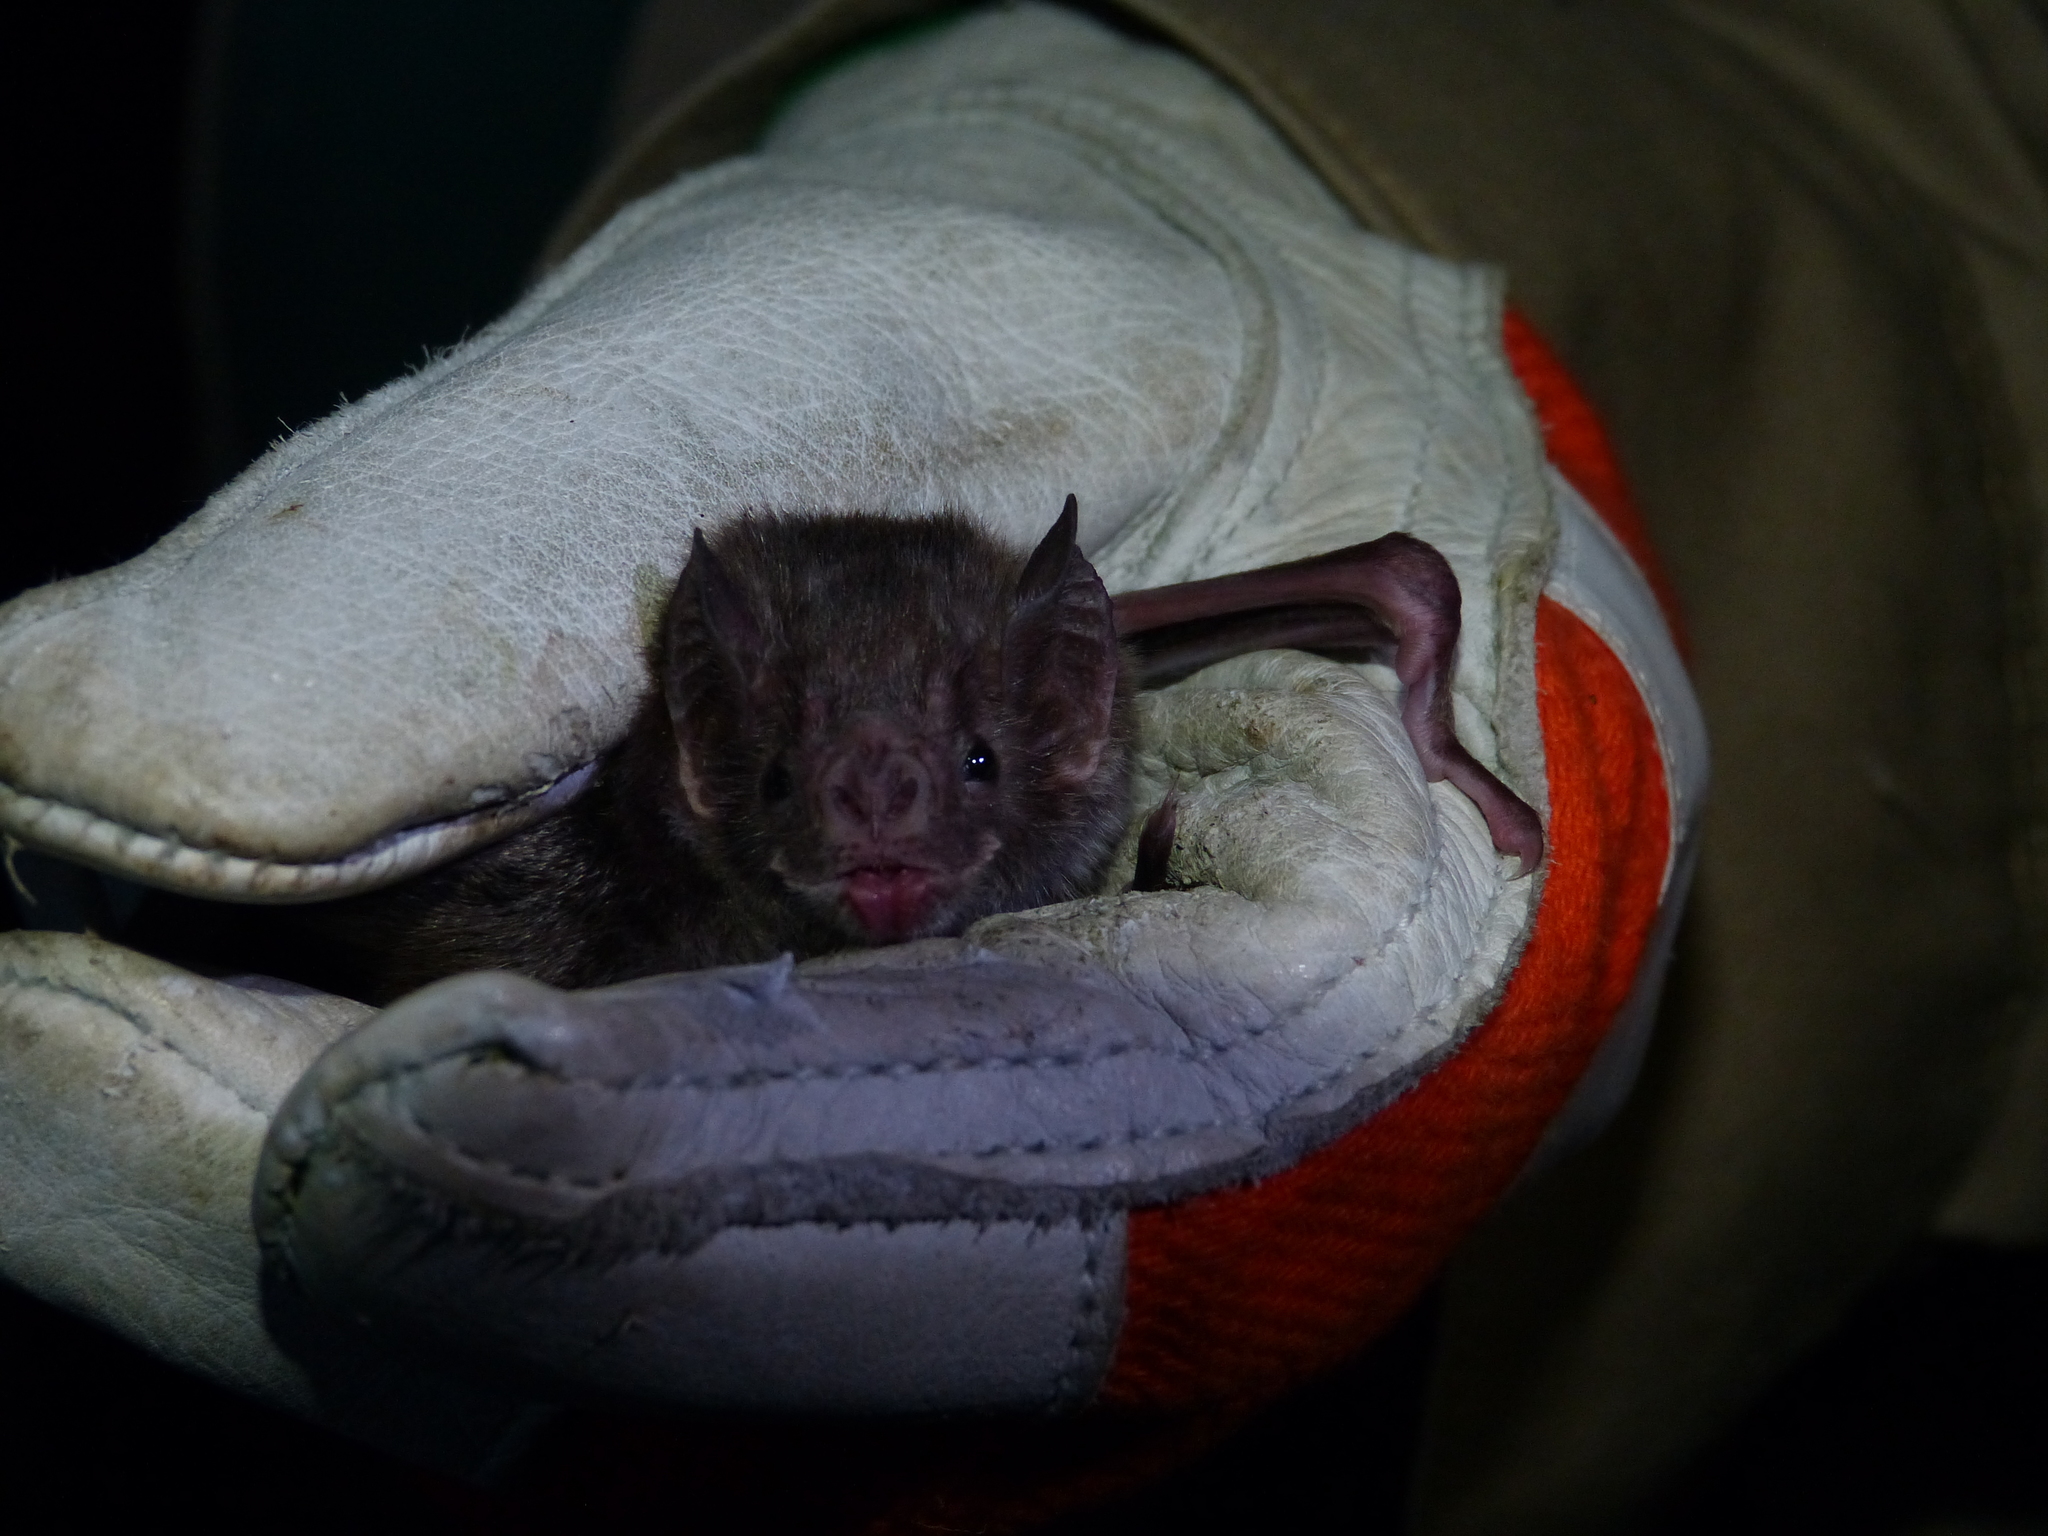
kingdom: Animalia
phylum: Chordata
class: Mammalia
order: Chiroptera
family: Phyllostomidae
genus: Desmodus
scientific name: Desmodus rotundus
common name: Common vampire bat
